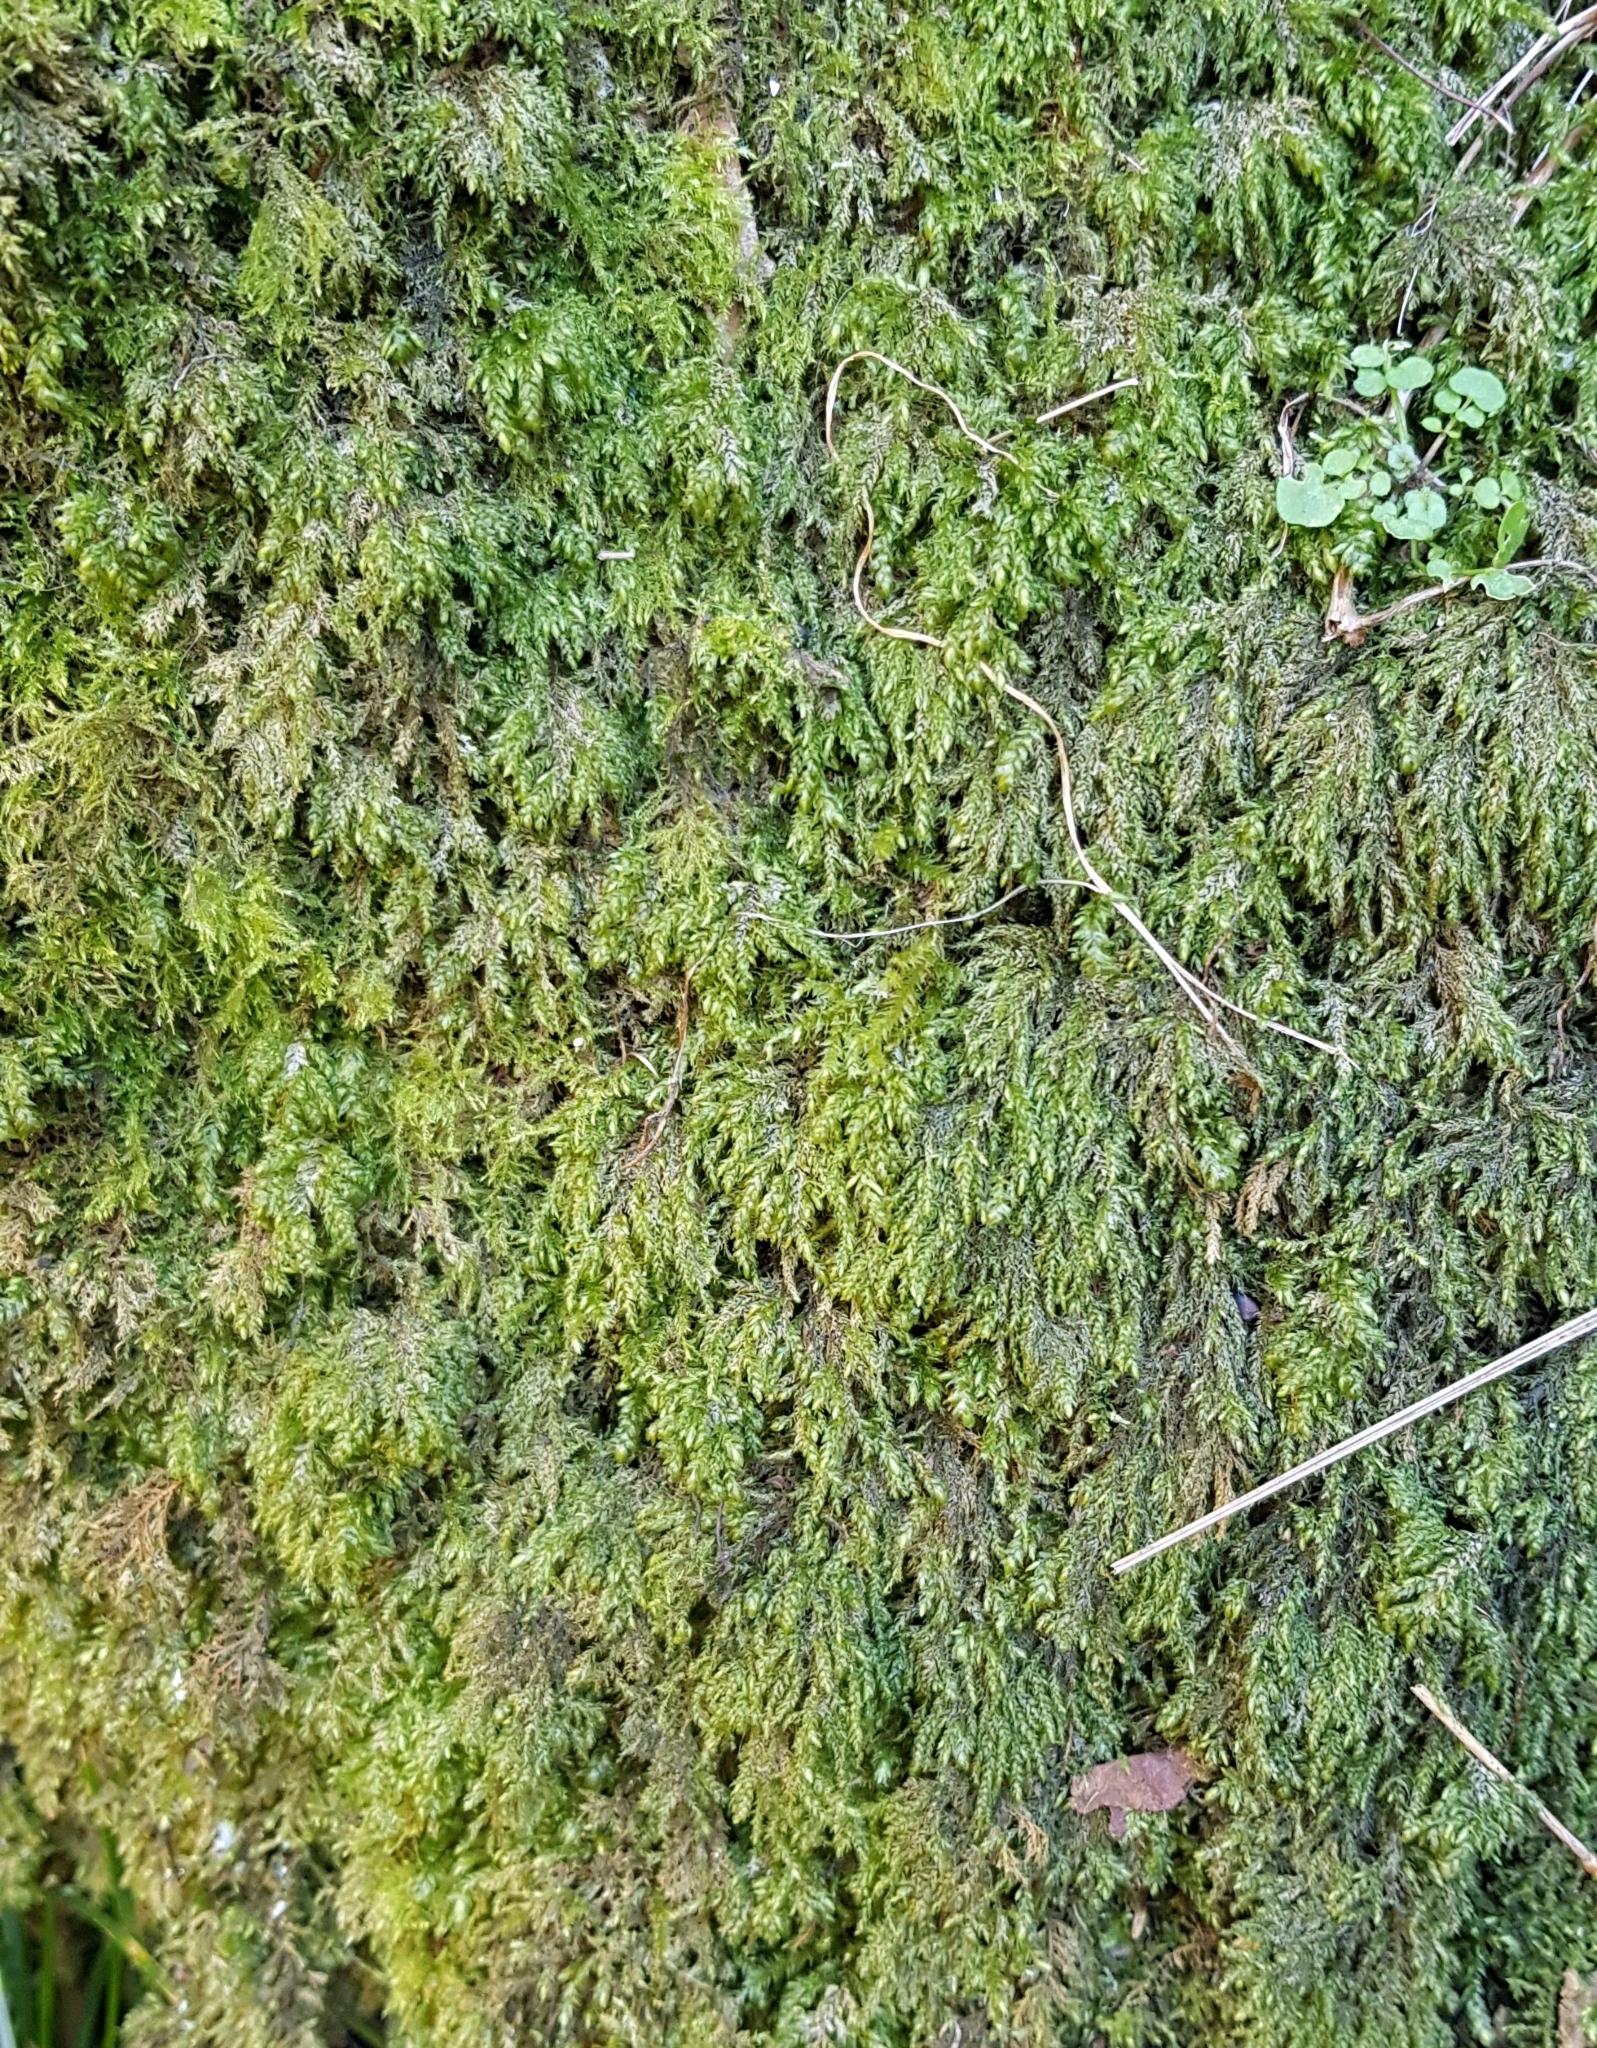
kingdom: Plantae
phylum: Bryophyta
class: Bryopsida
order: Hypnales
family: Lembophyllaceae
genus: Pseudisothecium
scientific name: Pseudisothecium myosuroides
